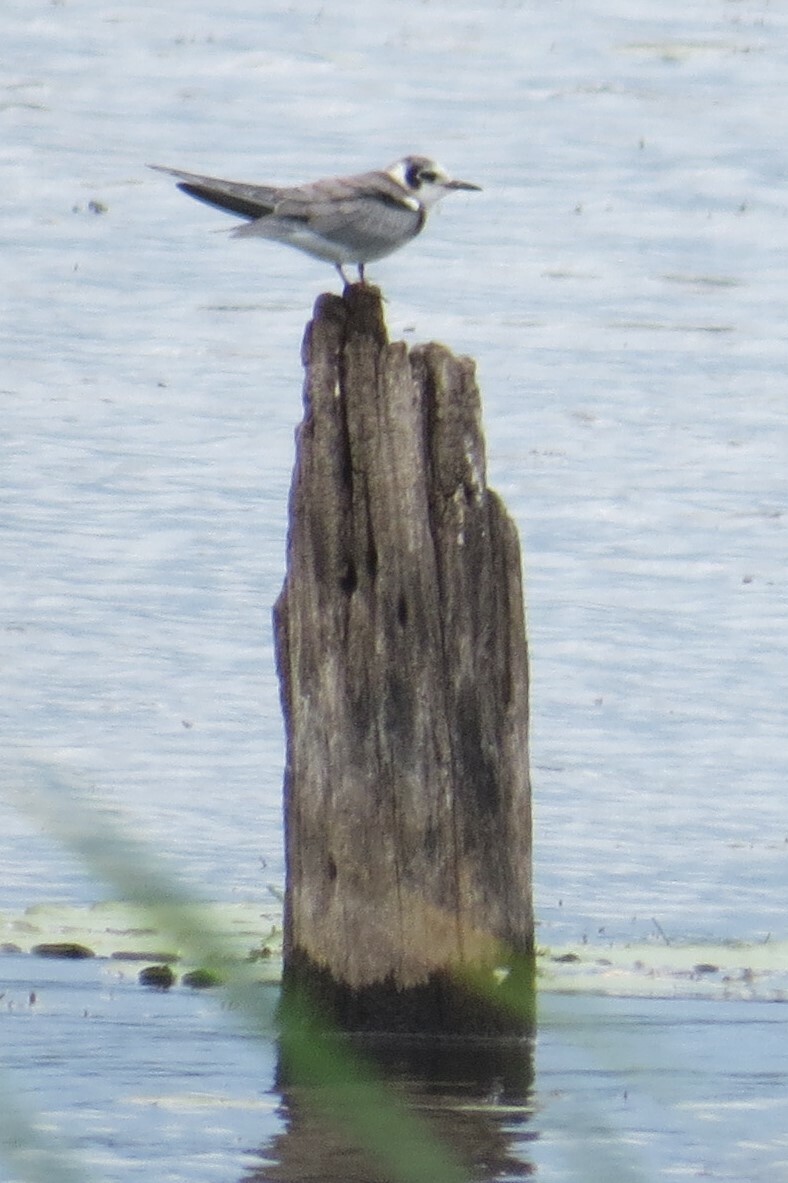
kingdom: Animalia
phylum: Chordata
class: Aves
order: Charadriiformes
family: Laridae
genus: Chlidonias
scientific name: Chlidonias niger
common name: Black tern
